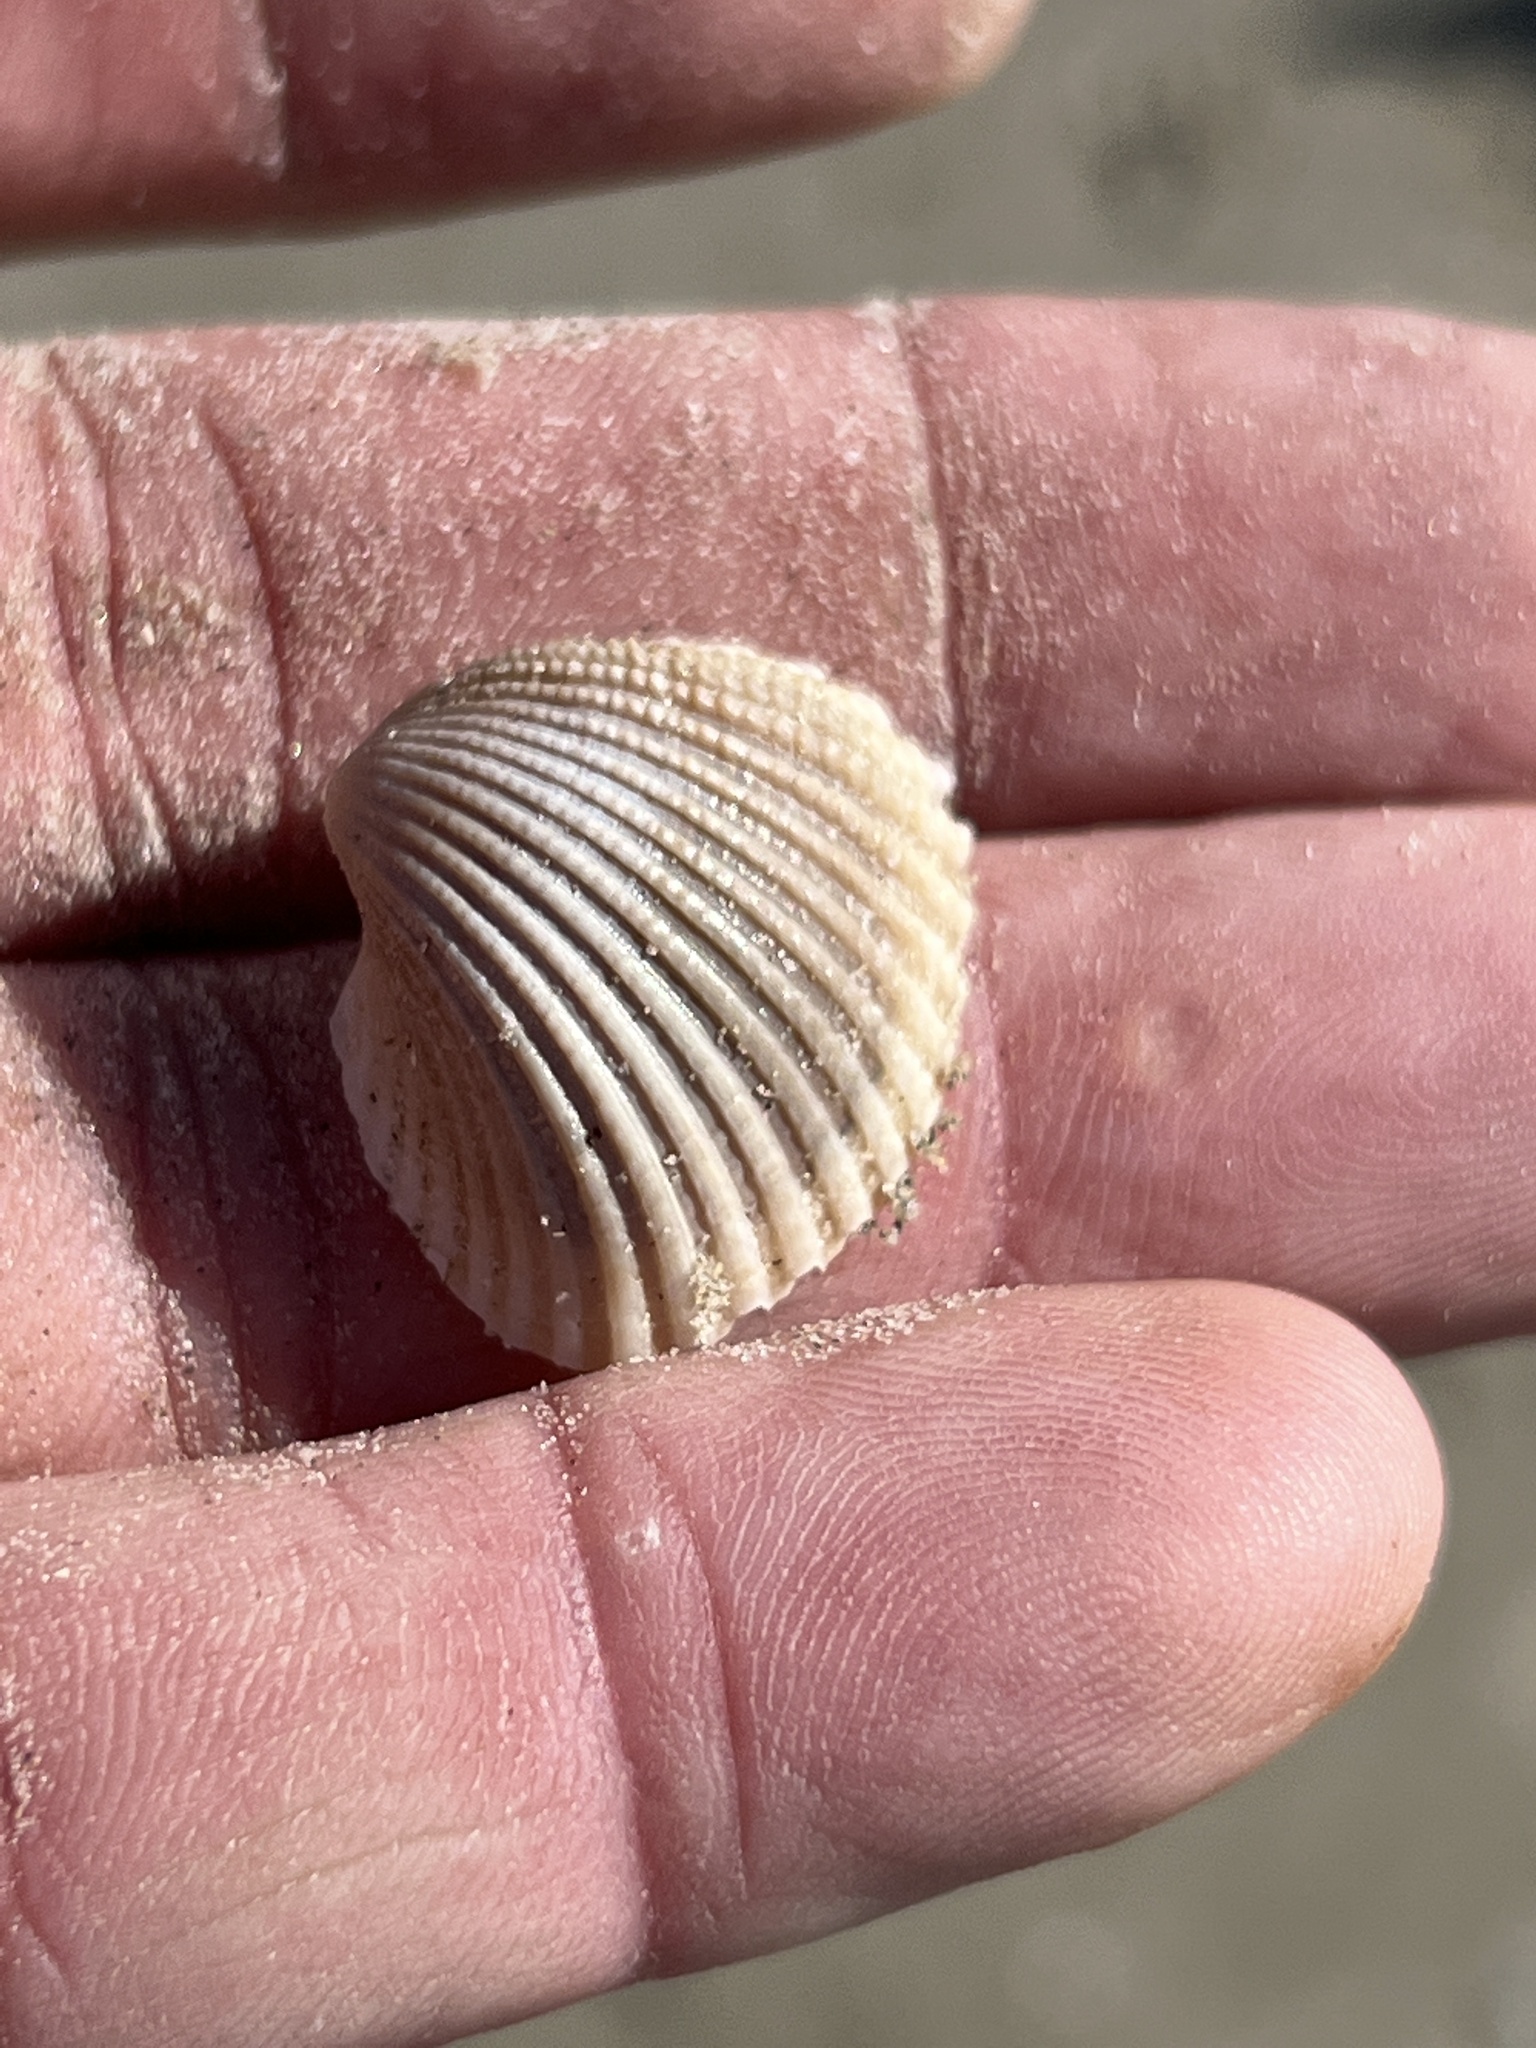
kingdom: Animalia
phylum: Mollusca
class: Bivalvia
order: Arcida
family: Arcidae
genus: Anadara
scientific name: Anadara brasiliana
